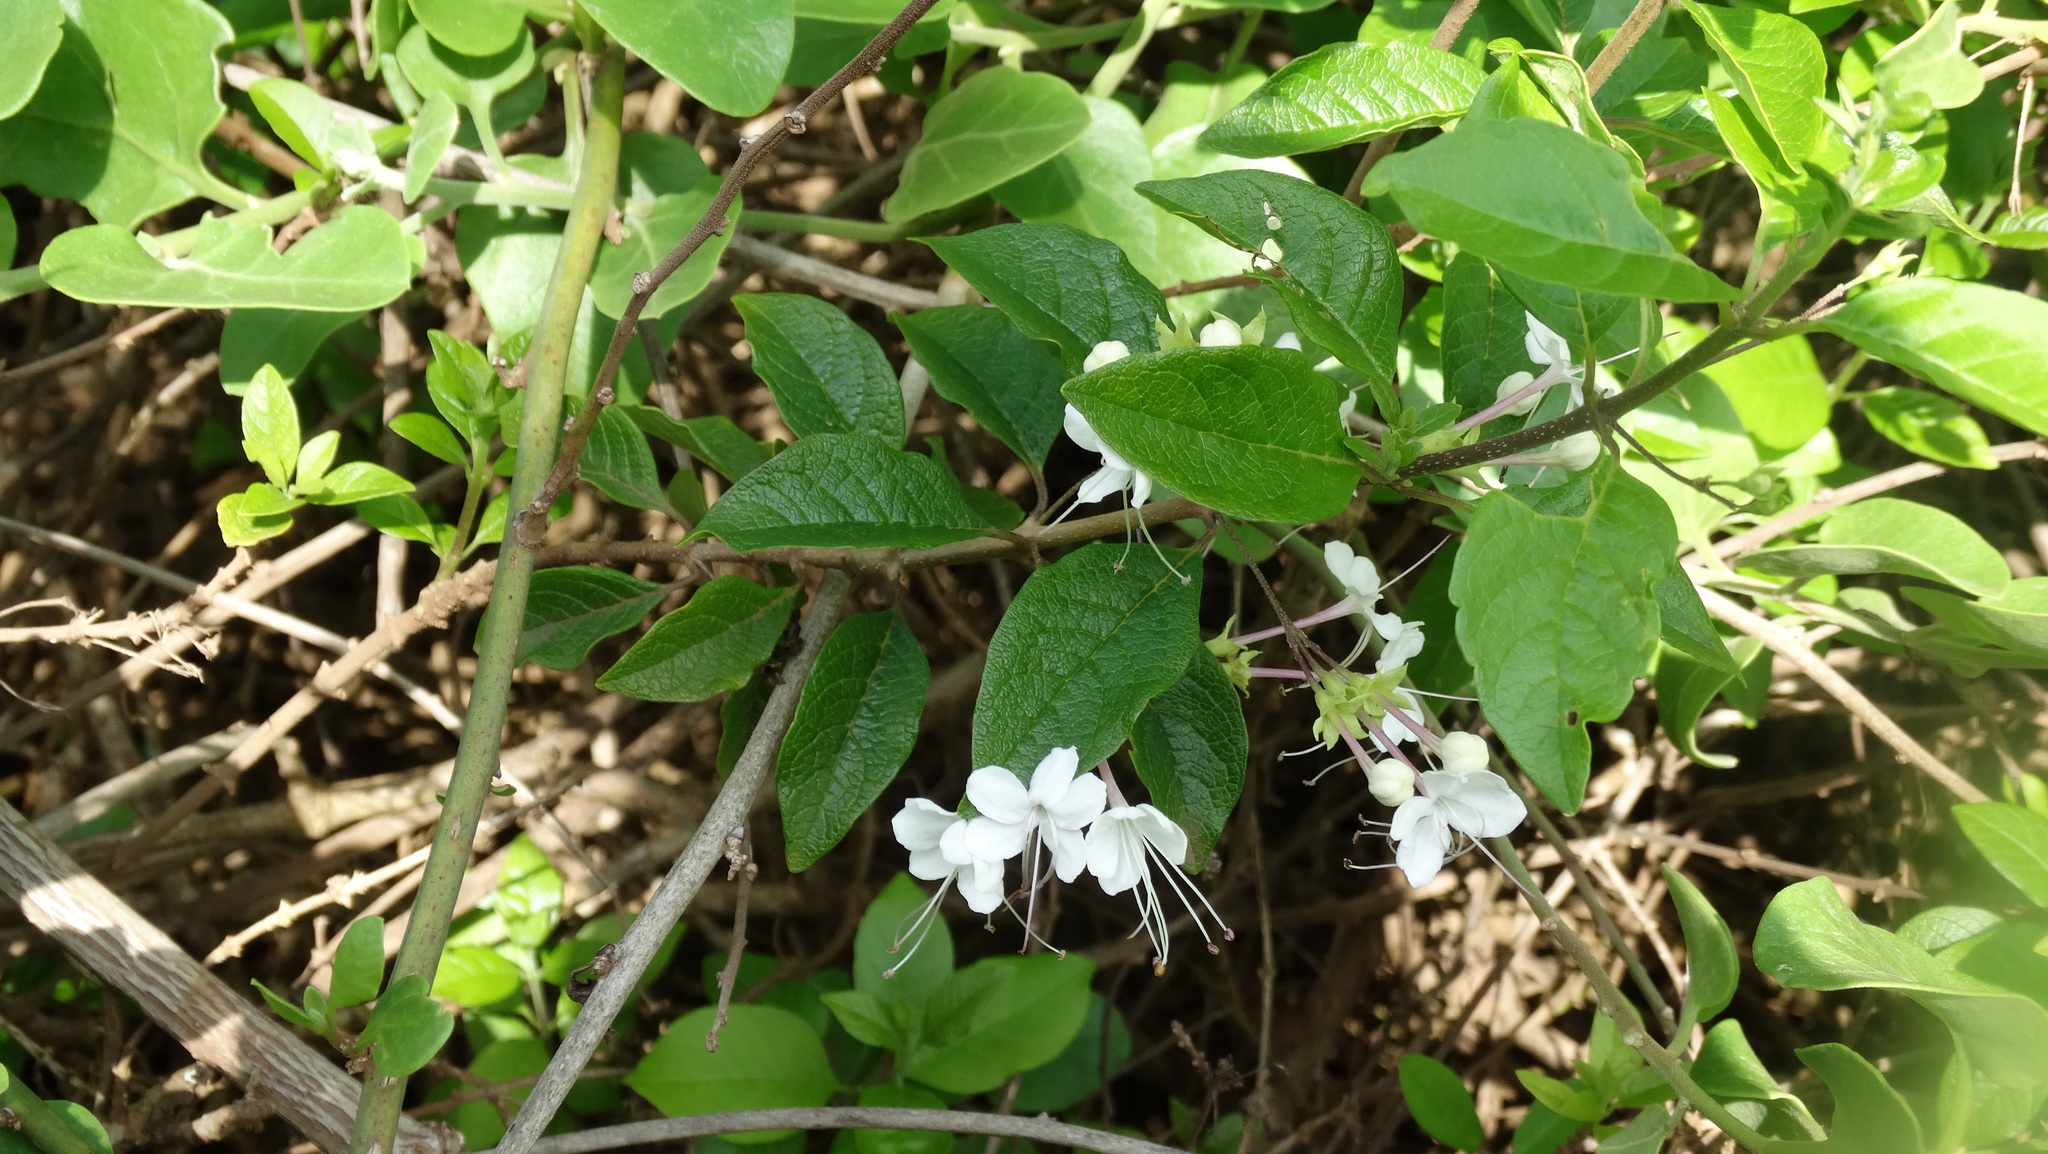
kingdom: Plantae
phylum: Tracheophyta
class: Magnoliopsida
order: Lamiales
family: Lamiaceae
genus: Volkameria
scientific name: Volkameria mollis
